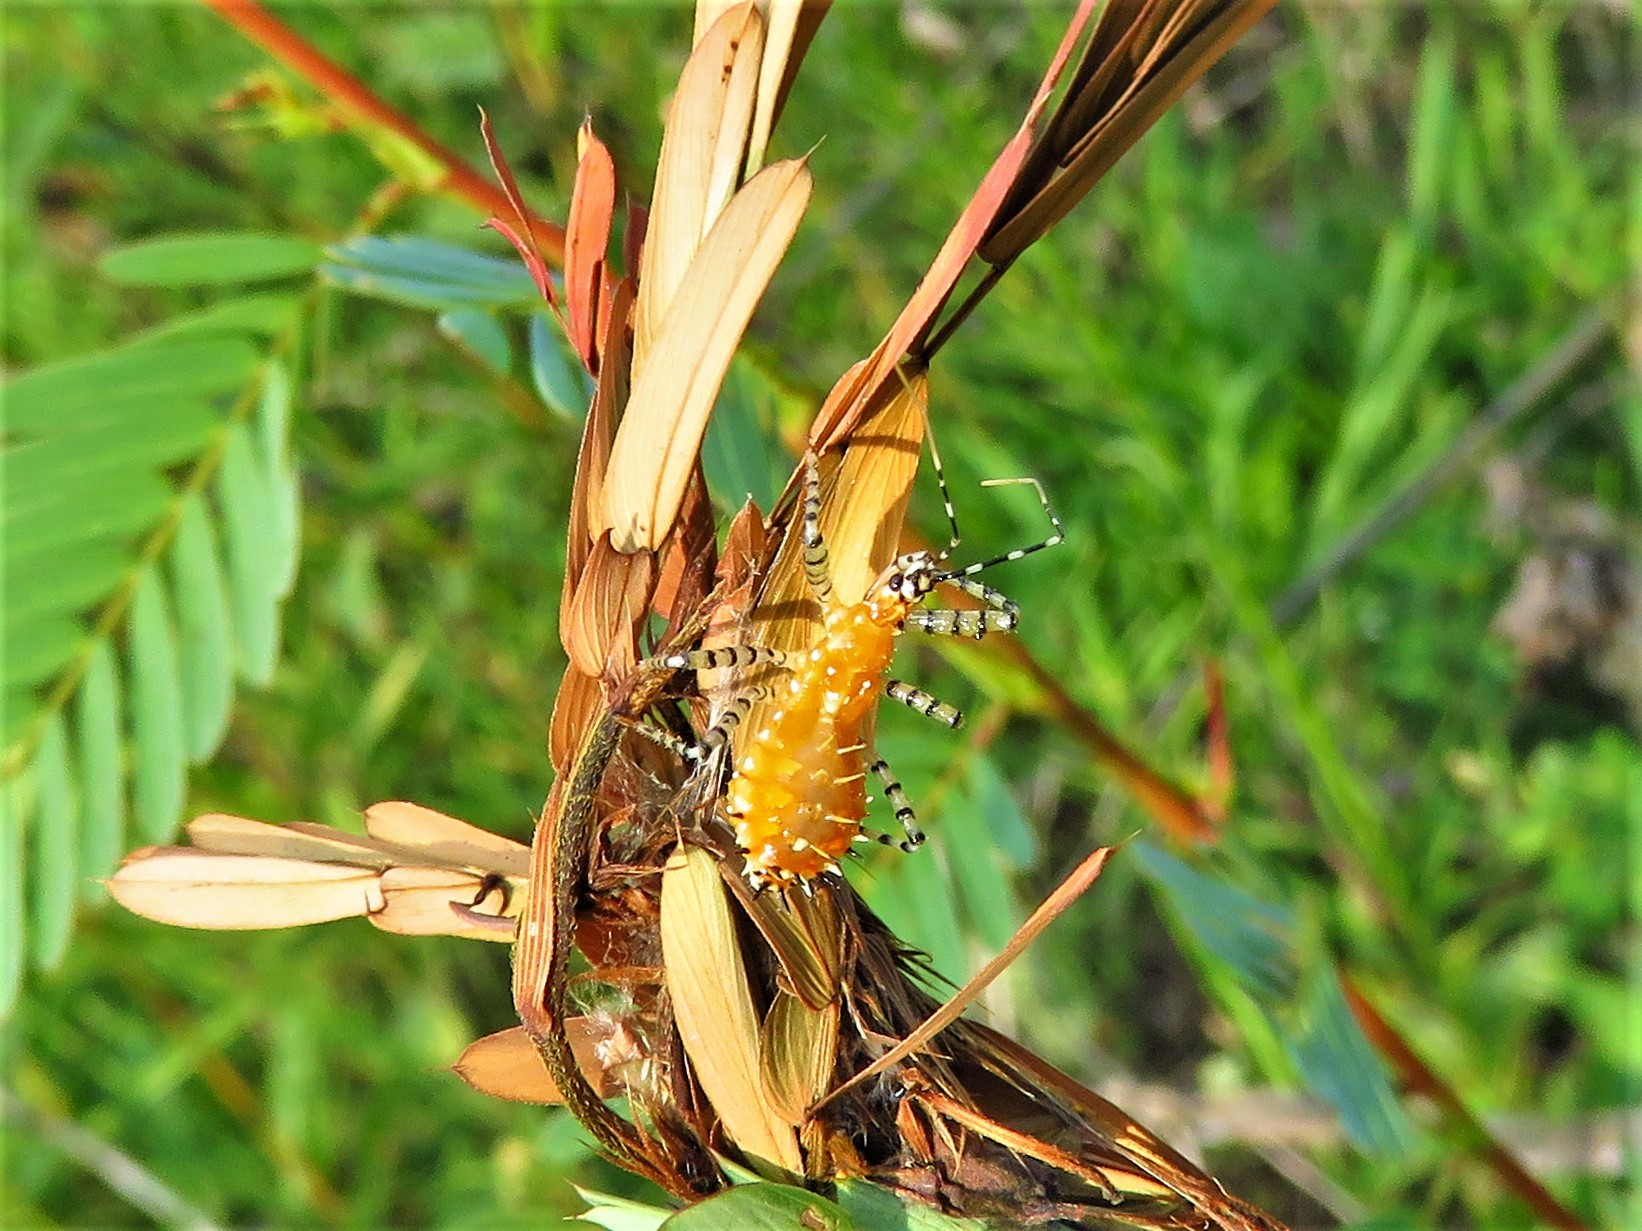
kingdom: Animalia
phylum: Arthropoda
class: Insecta
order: Hemiptera
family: Reduviidae
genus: Pselliopus
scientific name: Pselliopus cinctus
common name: Ringed assassin bug
